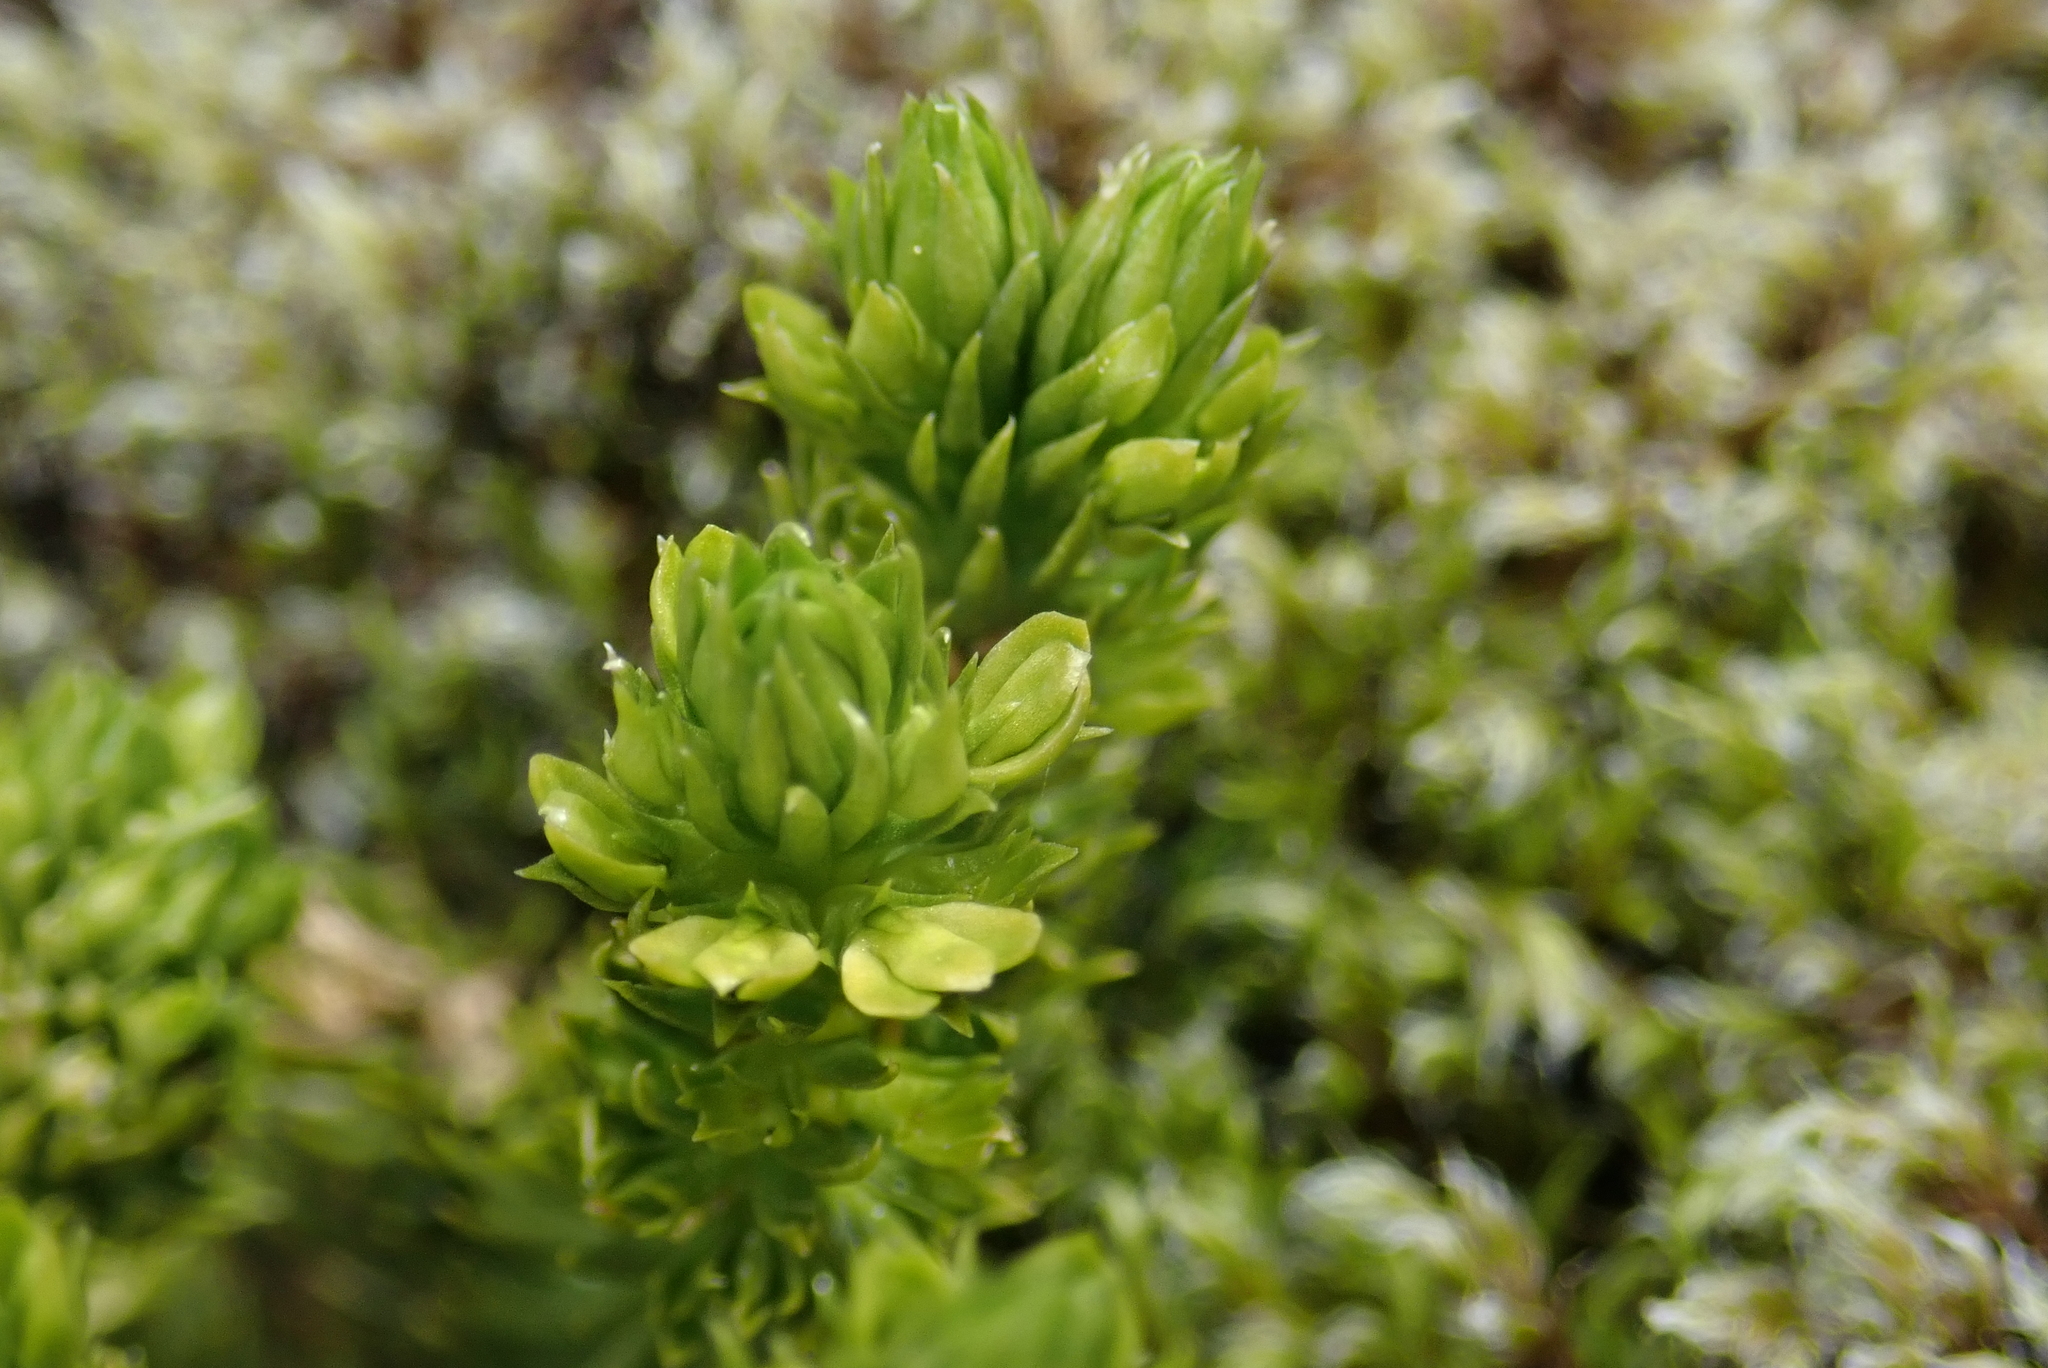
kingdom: Plantae
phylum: Tracheophyta
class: Lycopodiopsida
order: Lycopodiales
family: Lycopodiaceae
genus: Huperzia
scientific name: Huperzia selago
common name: Northern firmoss
